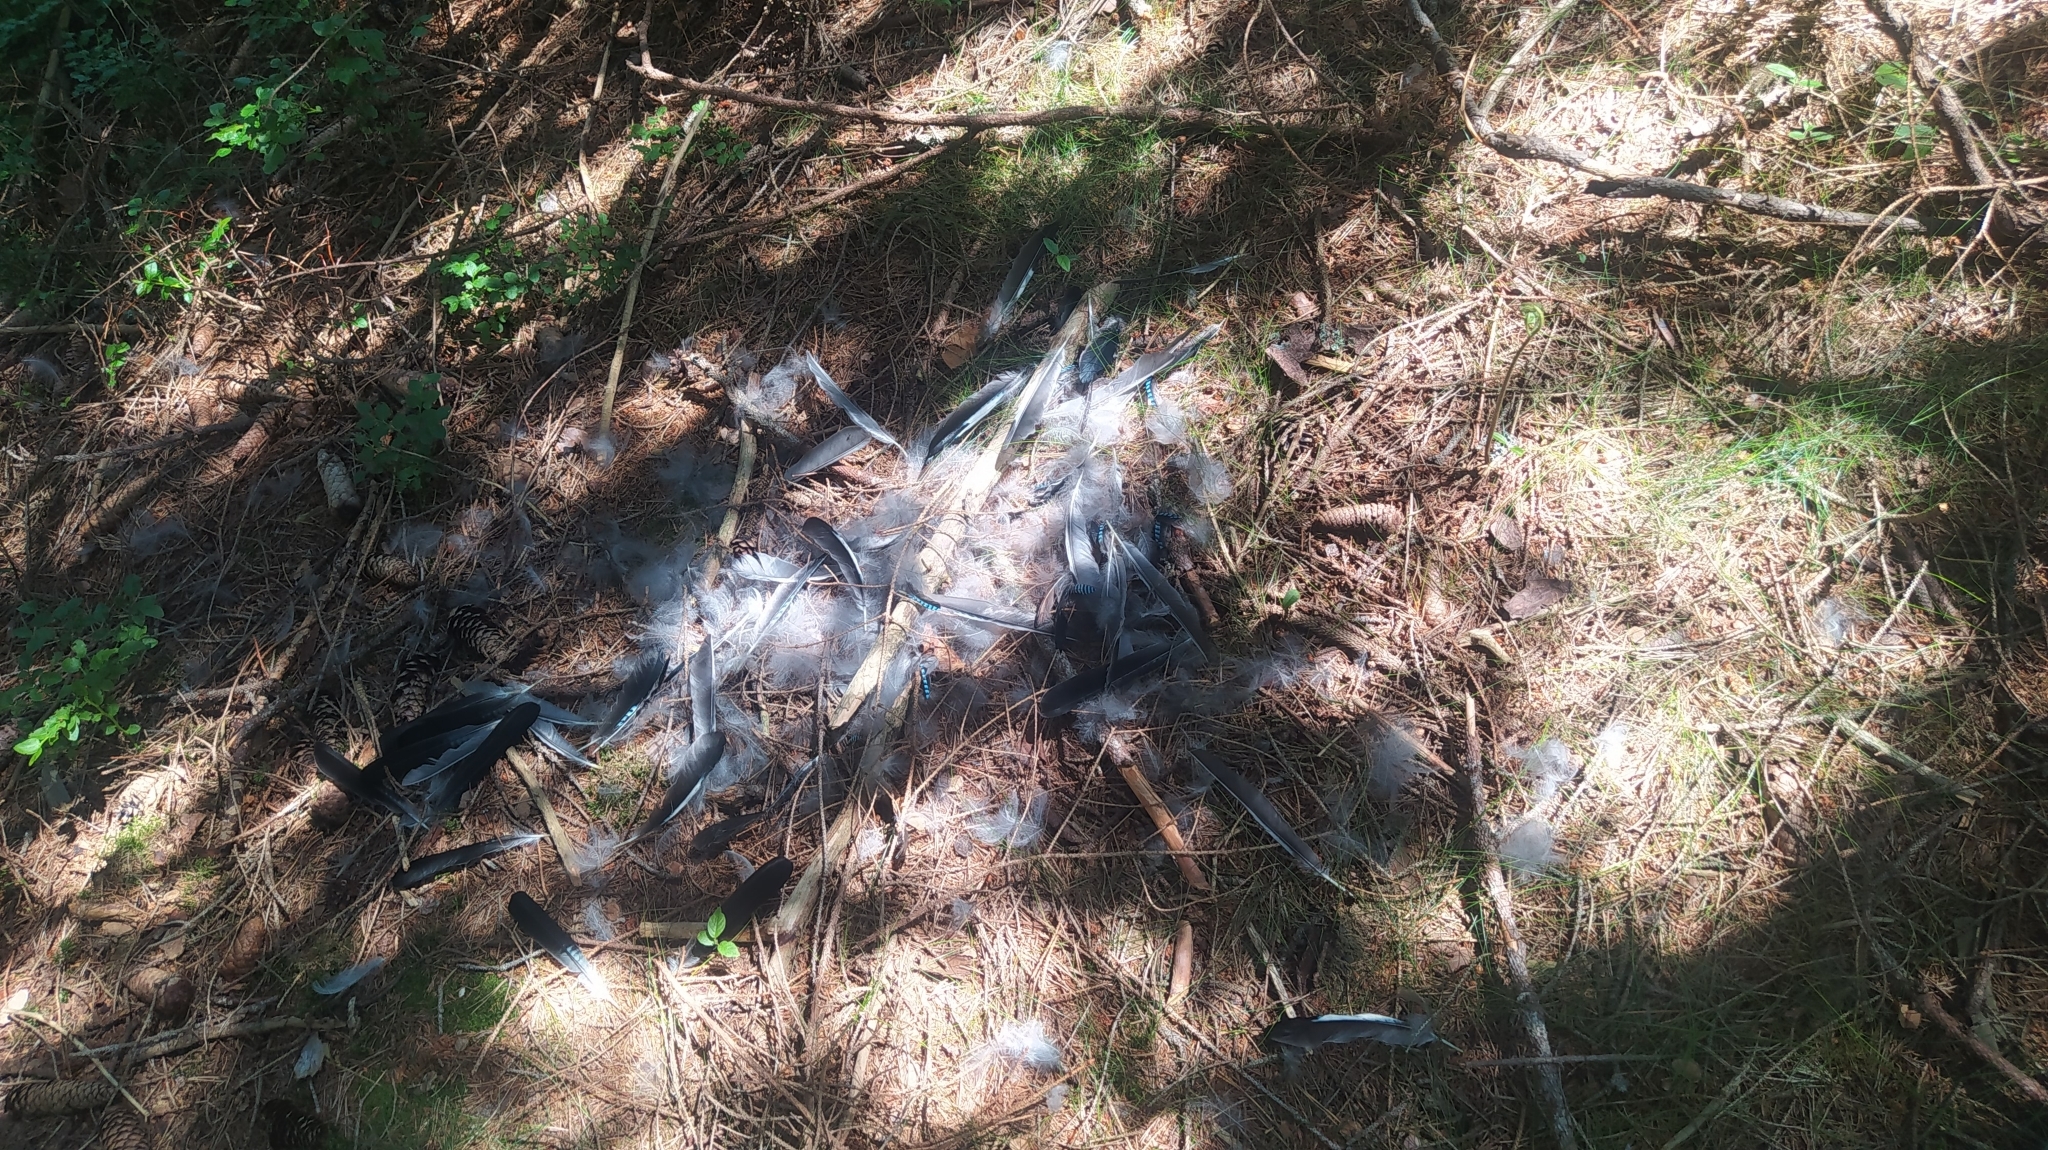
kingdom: Animalia
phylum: Chordata
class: Aves
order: Passeriformes
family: Corvidae
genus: Garrulus
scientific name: Garrulus glandarius
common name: Eurasian jay
